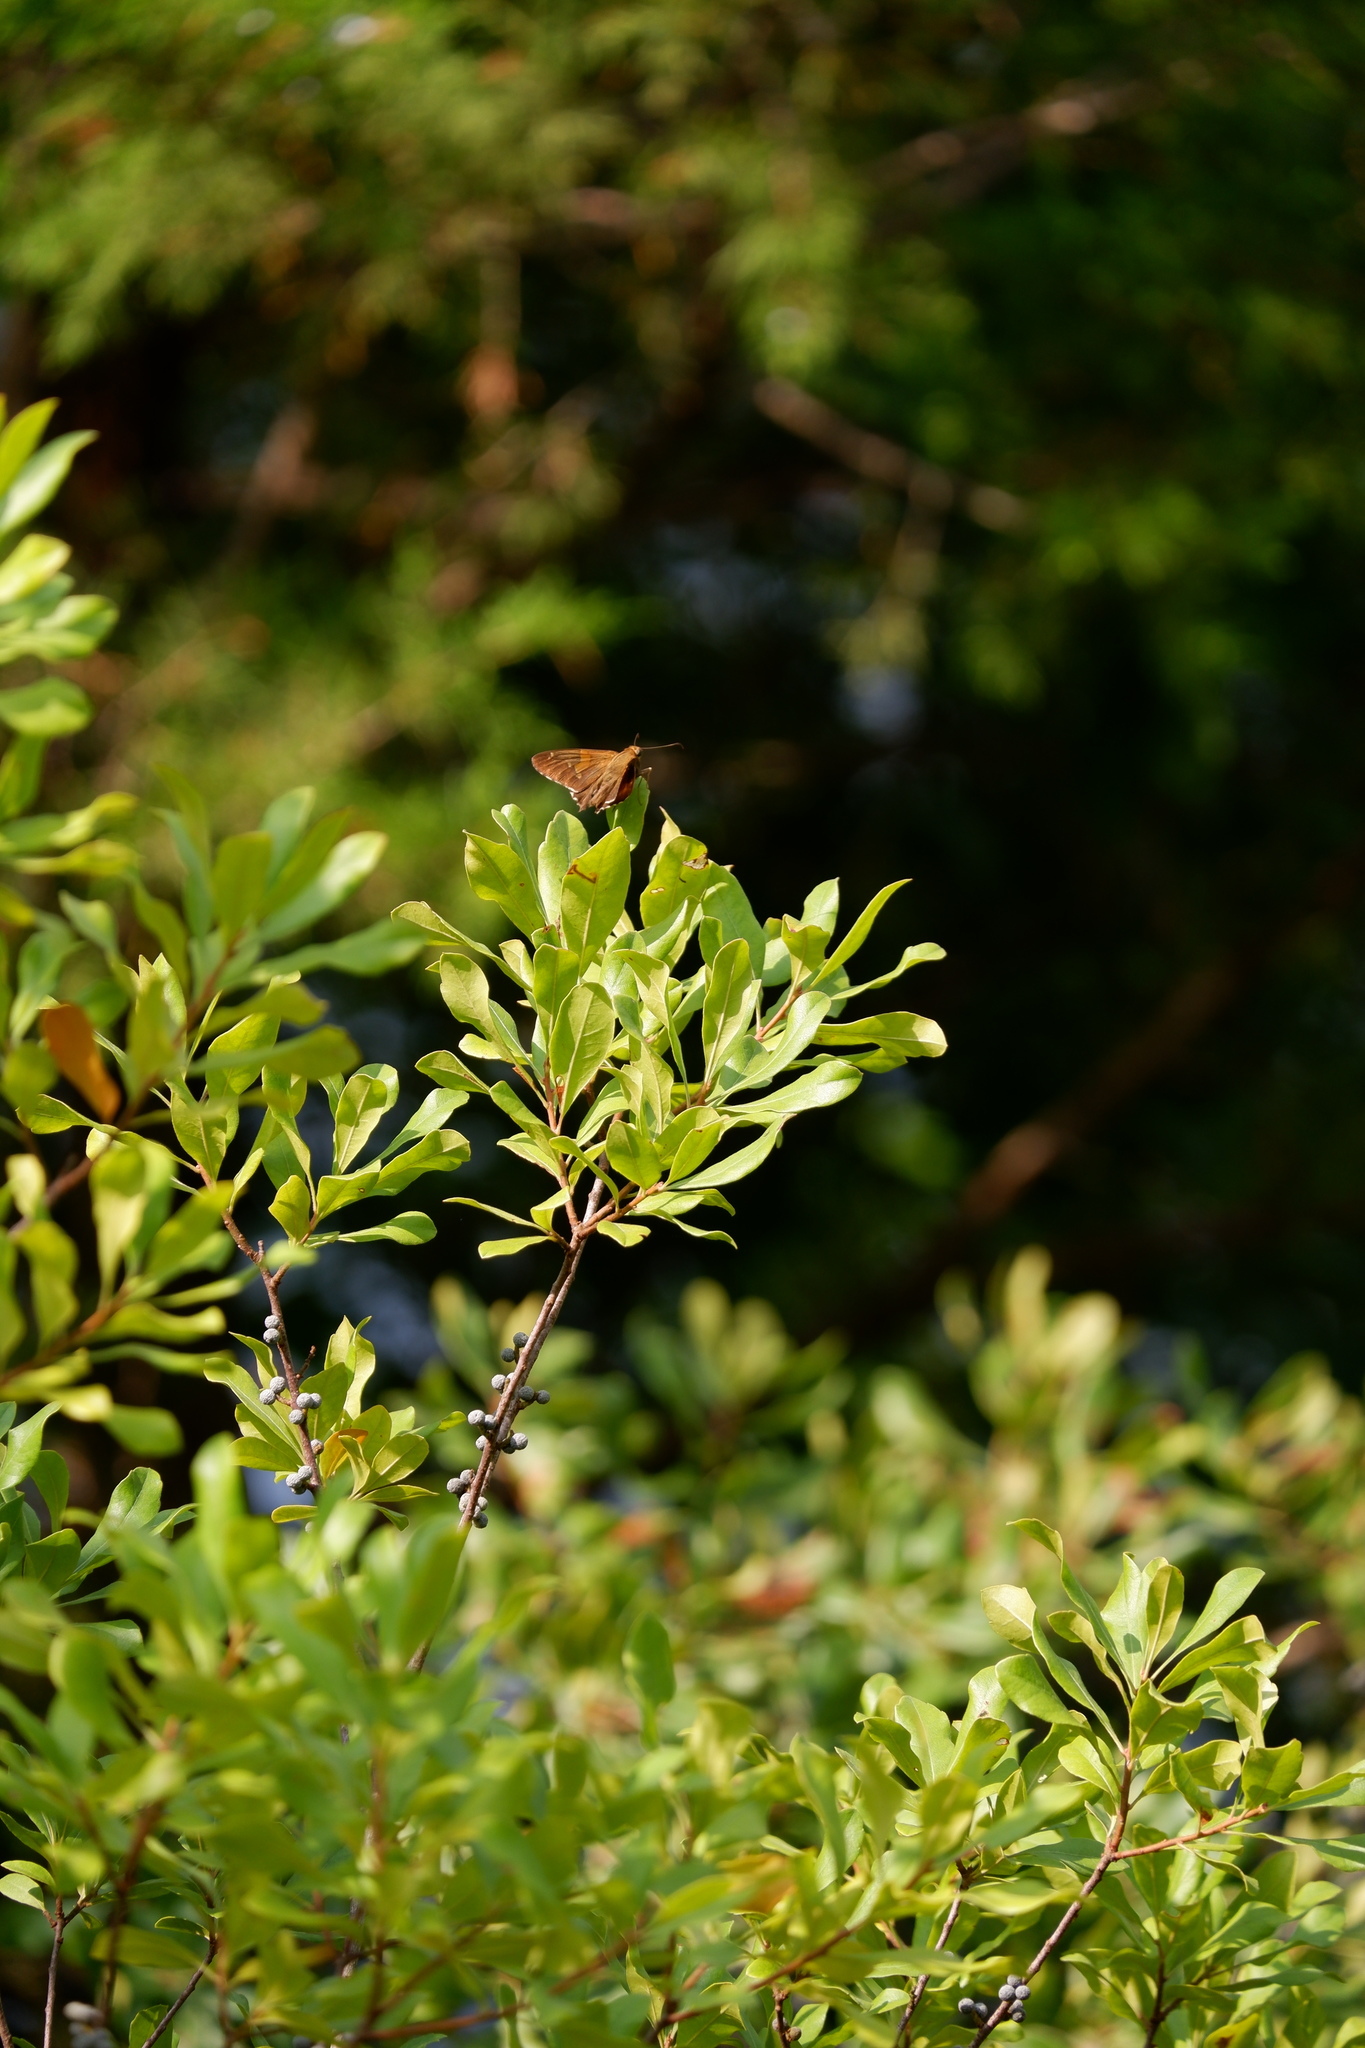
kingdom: Animalia
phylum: Arthropoda
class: Insecta
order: Lepidoptera
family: Hesperiidae
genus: Epargyreus
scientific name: Epargyreus clarus
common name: Silver-spotted skipper
